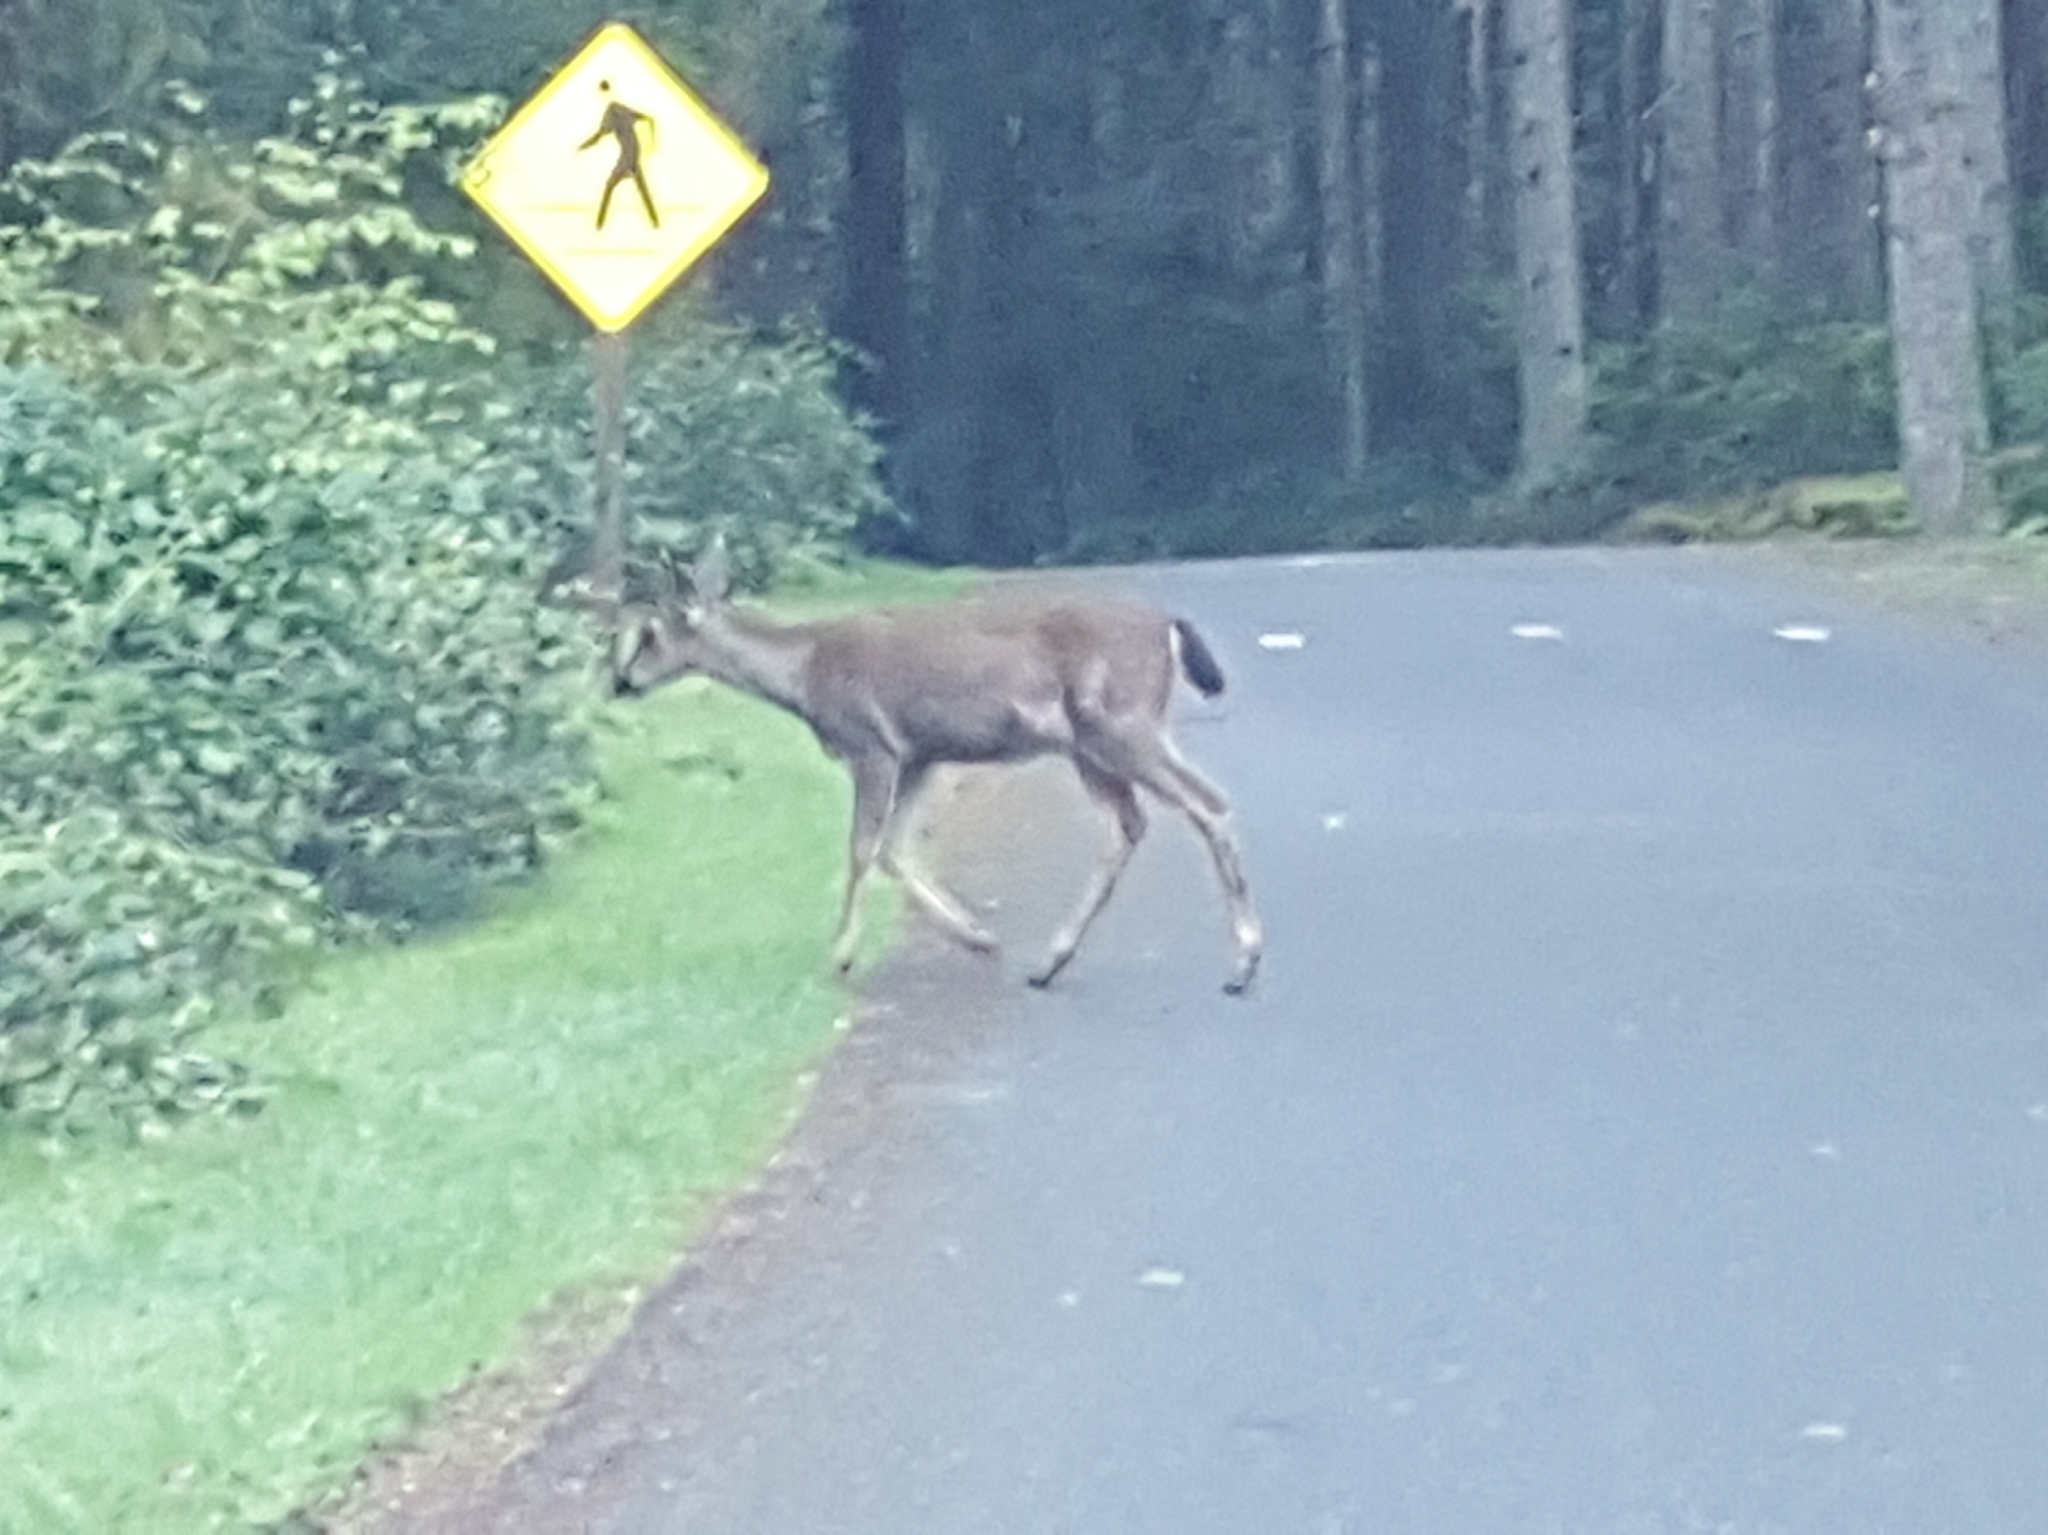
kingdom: Animalia
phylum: Chordata
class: Mammalia
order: Artiodactyla
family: Cervidae
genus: Odocoileus
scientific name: Odocoileus hemionus
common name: Mule deer
